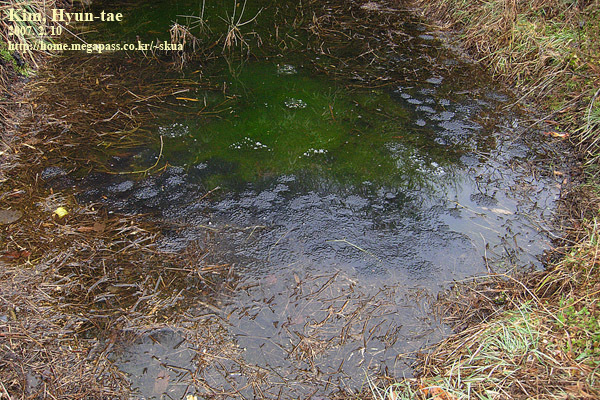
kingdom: Animalia
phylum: Chordata
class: Amphibia
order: Anura
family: Ranidae
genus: Rana
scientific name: Rana uenoi
